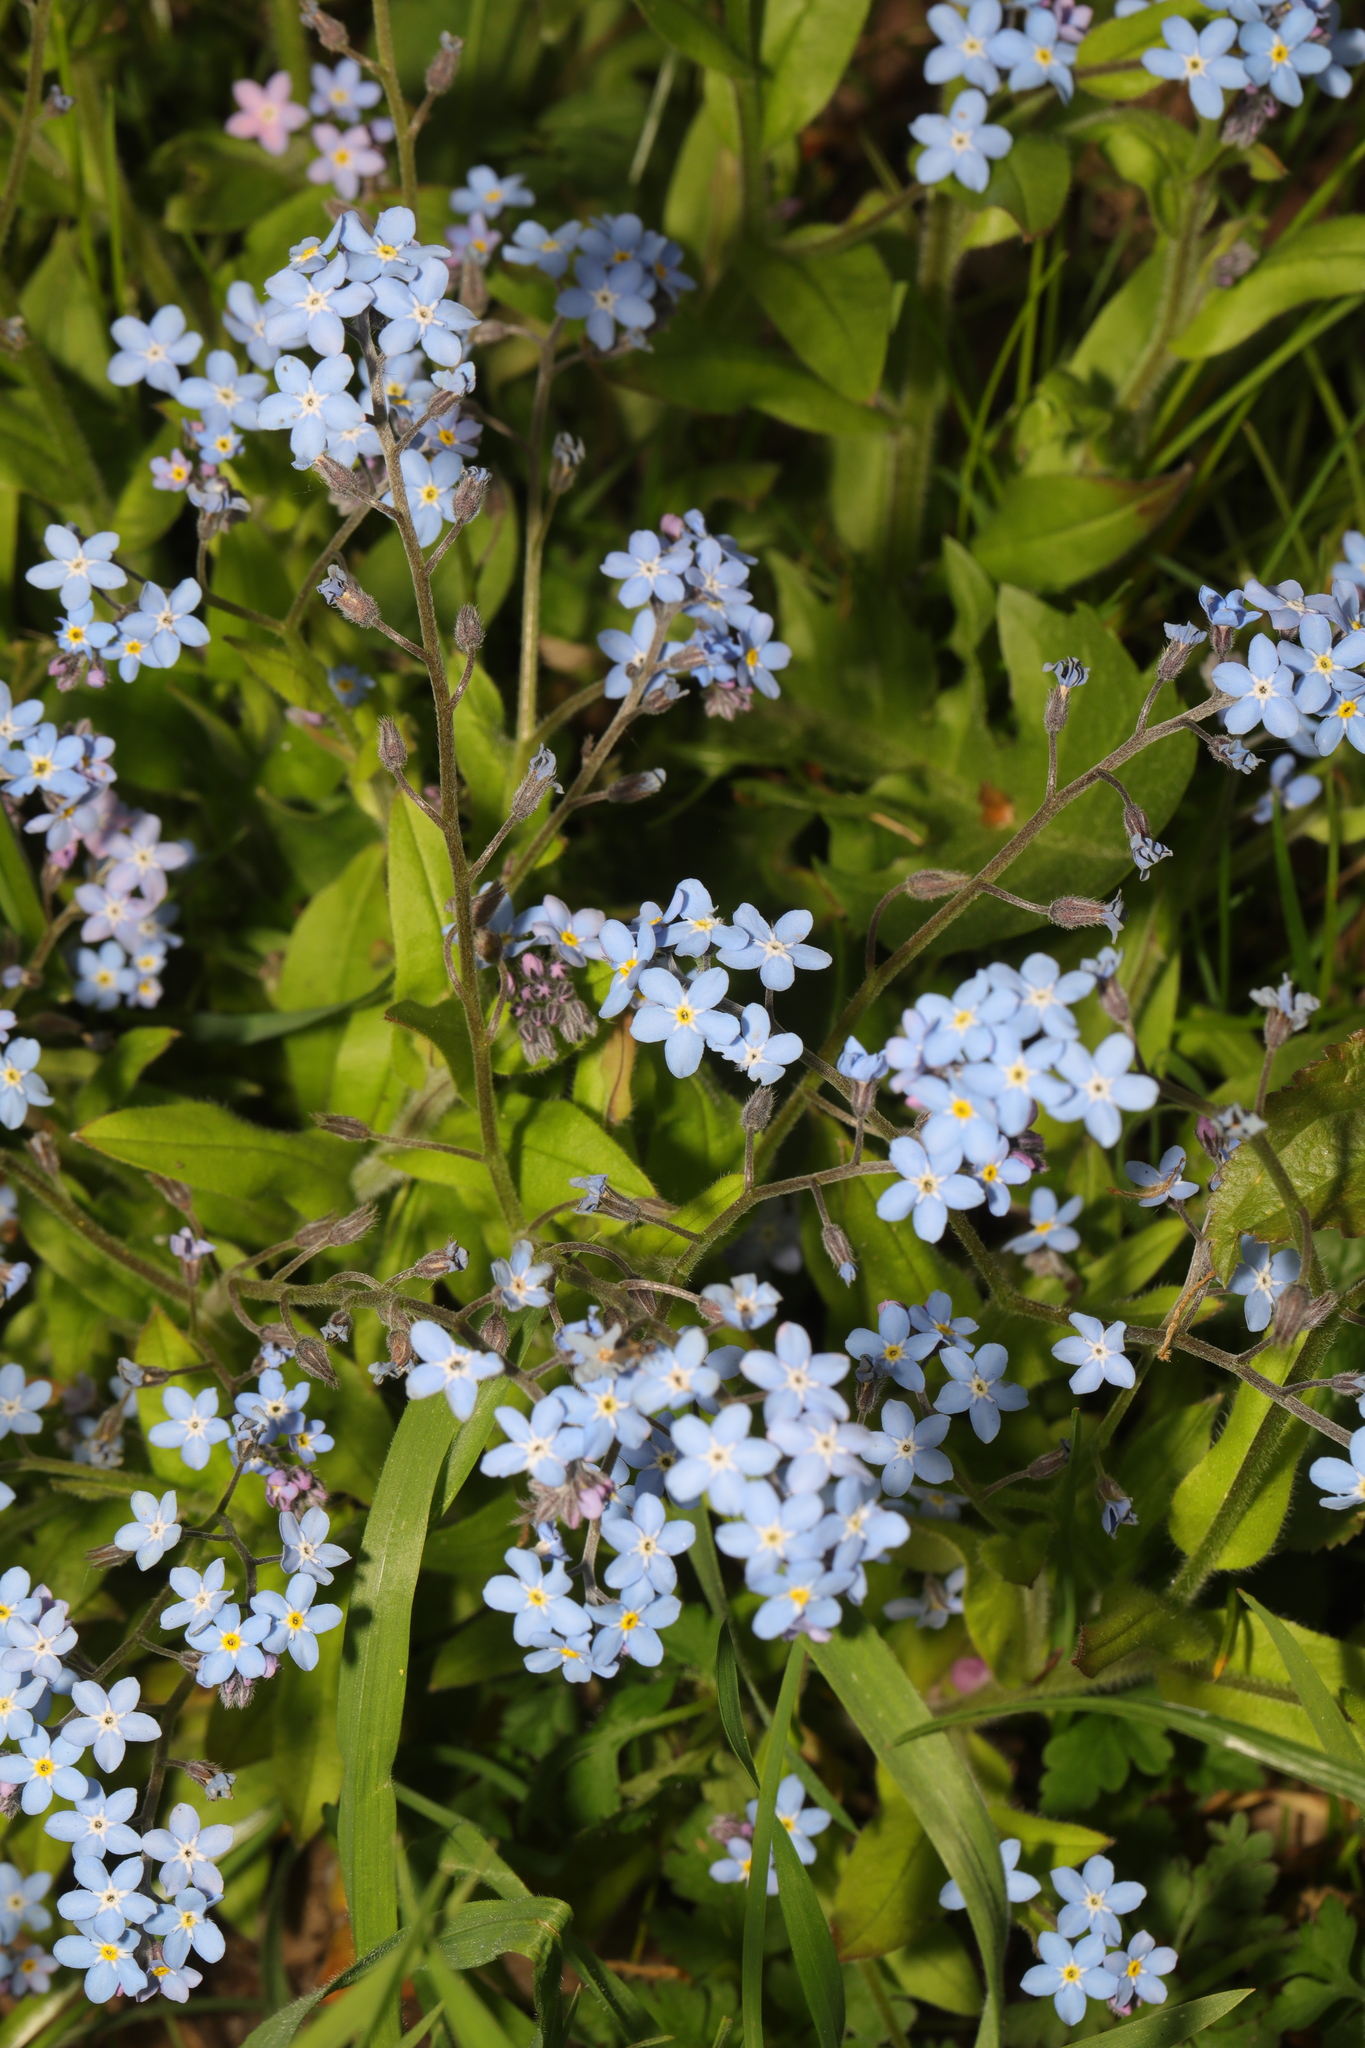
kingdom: Plantae
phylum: Tracheophyta
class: Magnoliopsida
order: Boraginales
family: Boraginaceae
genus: Myosotis
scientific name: Myosotis sylvatica
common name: Wood forget-me-not
